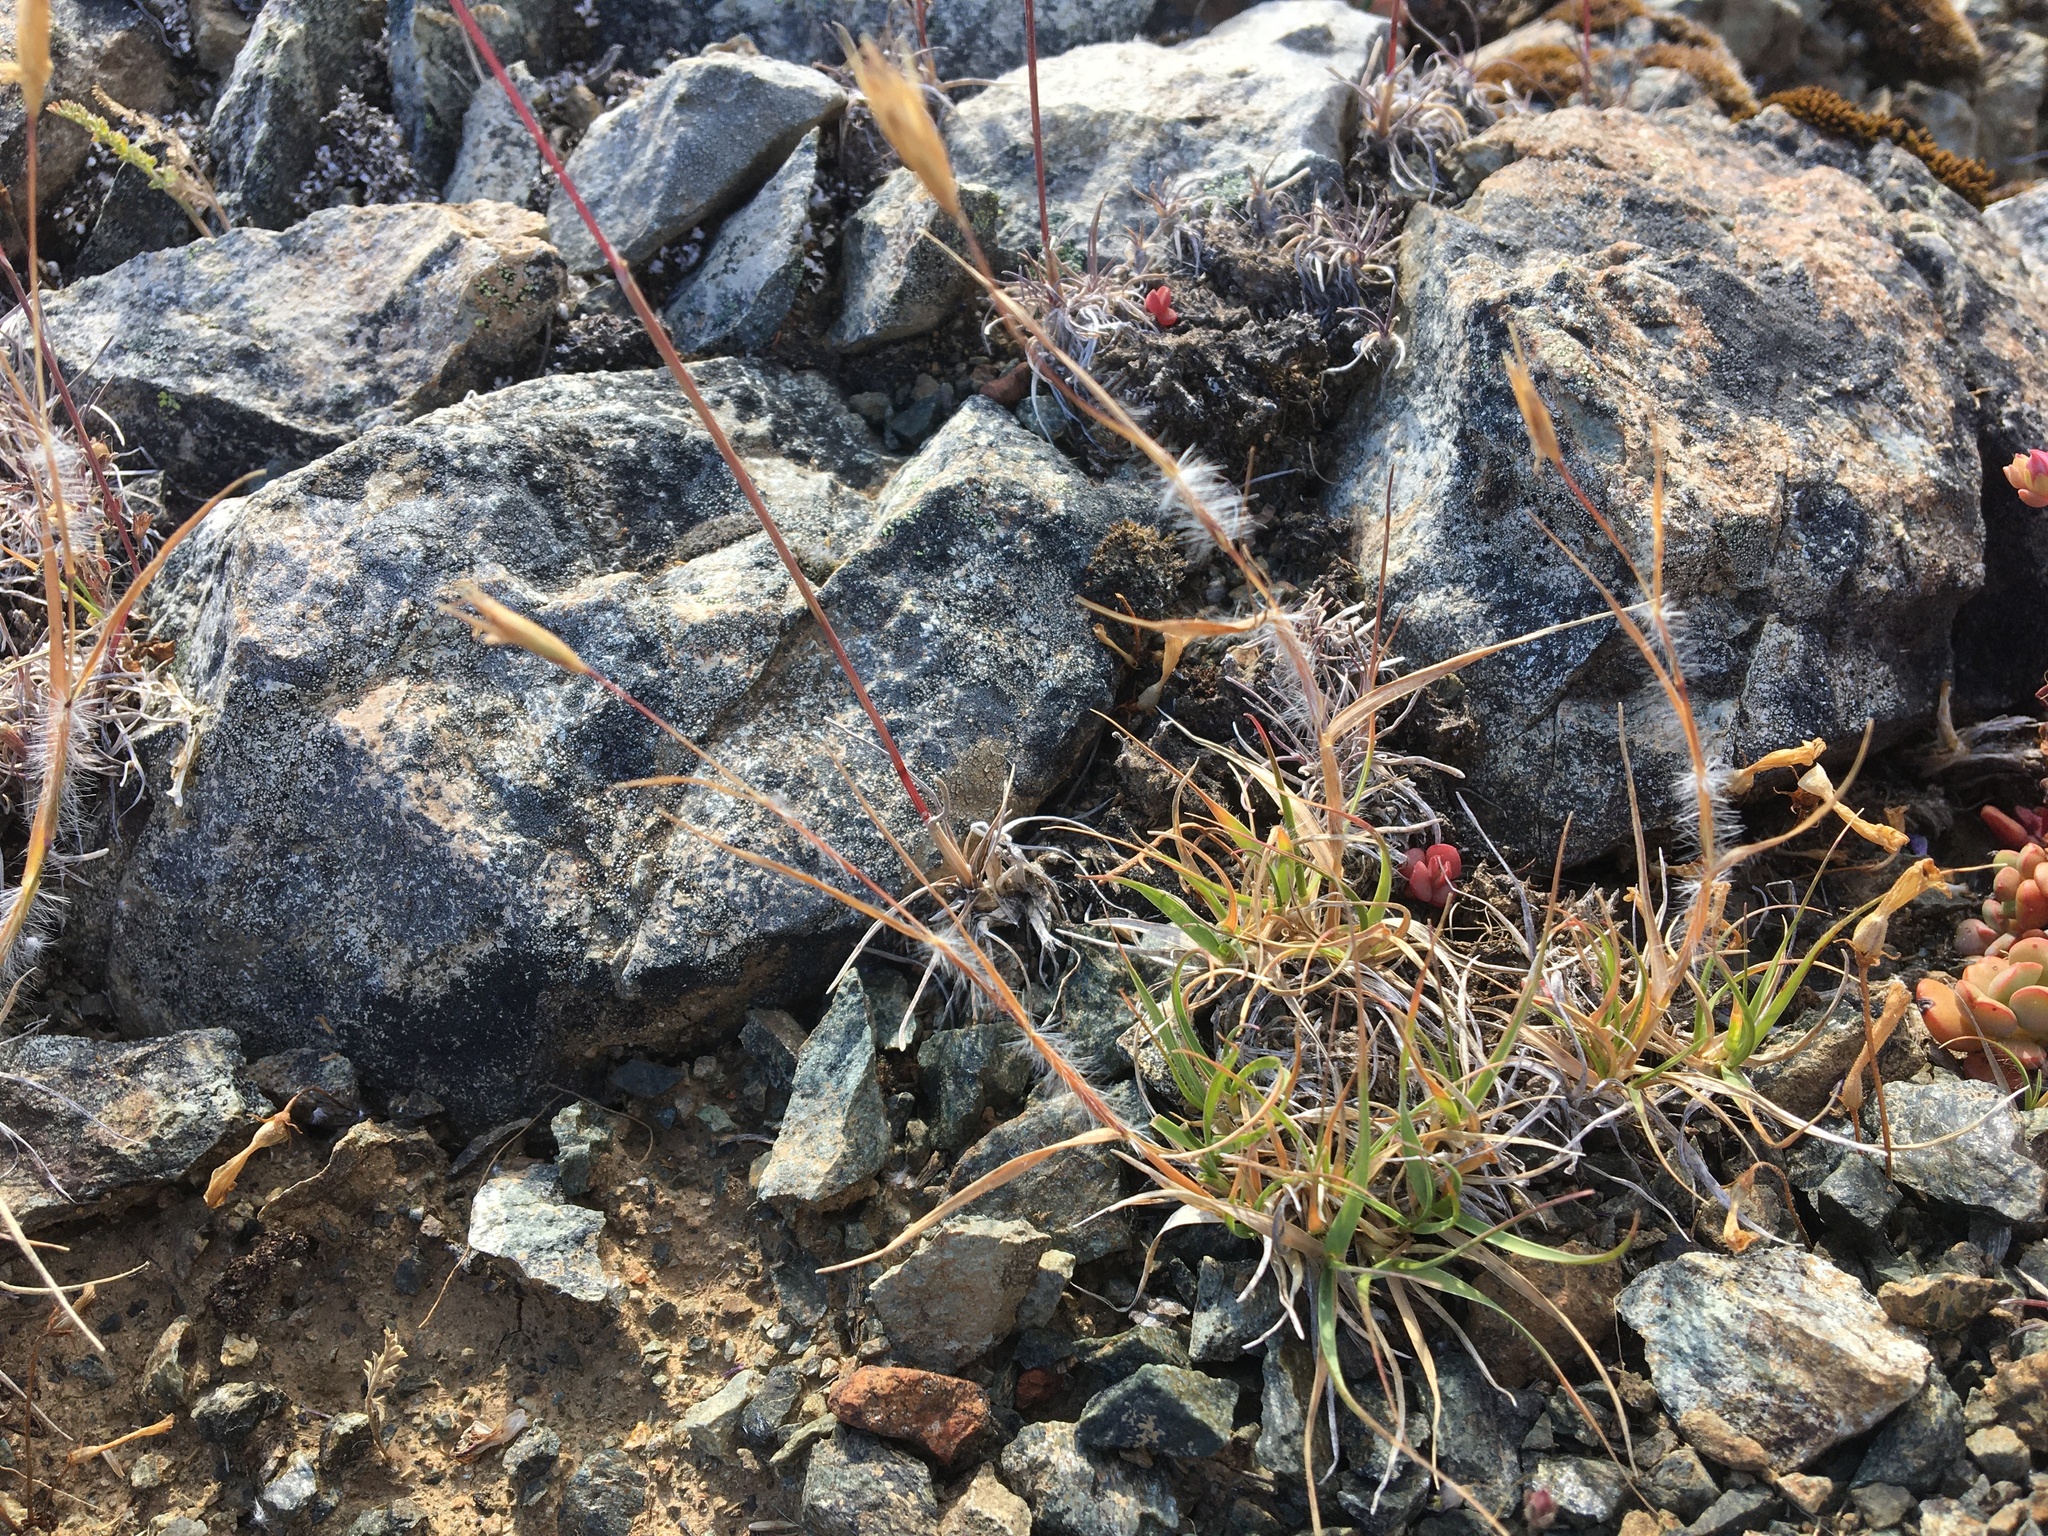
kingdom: Plantae
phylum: Tracheophyta
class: Liliopsida
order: Poales
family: Poaceae
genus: Danthonia
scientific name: Danthonia unispicata
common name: Few-flowered oatgrass
